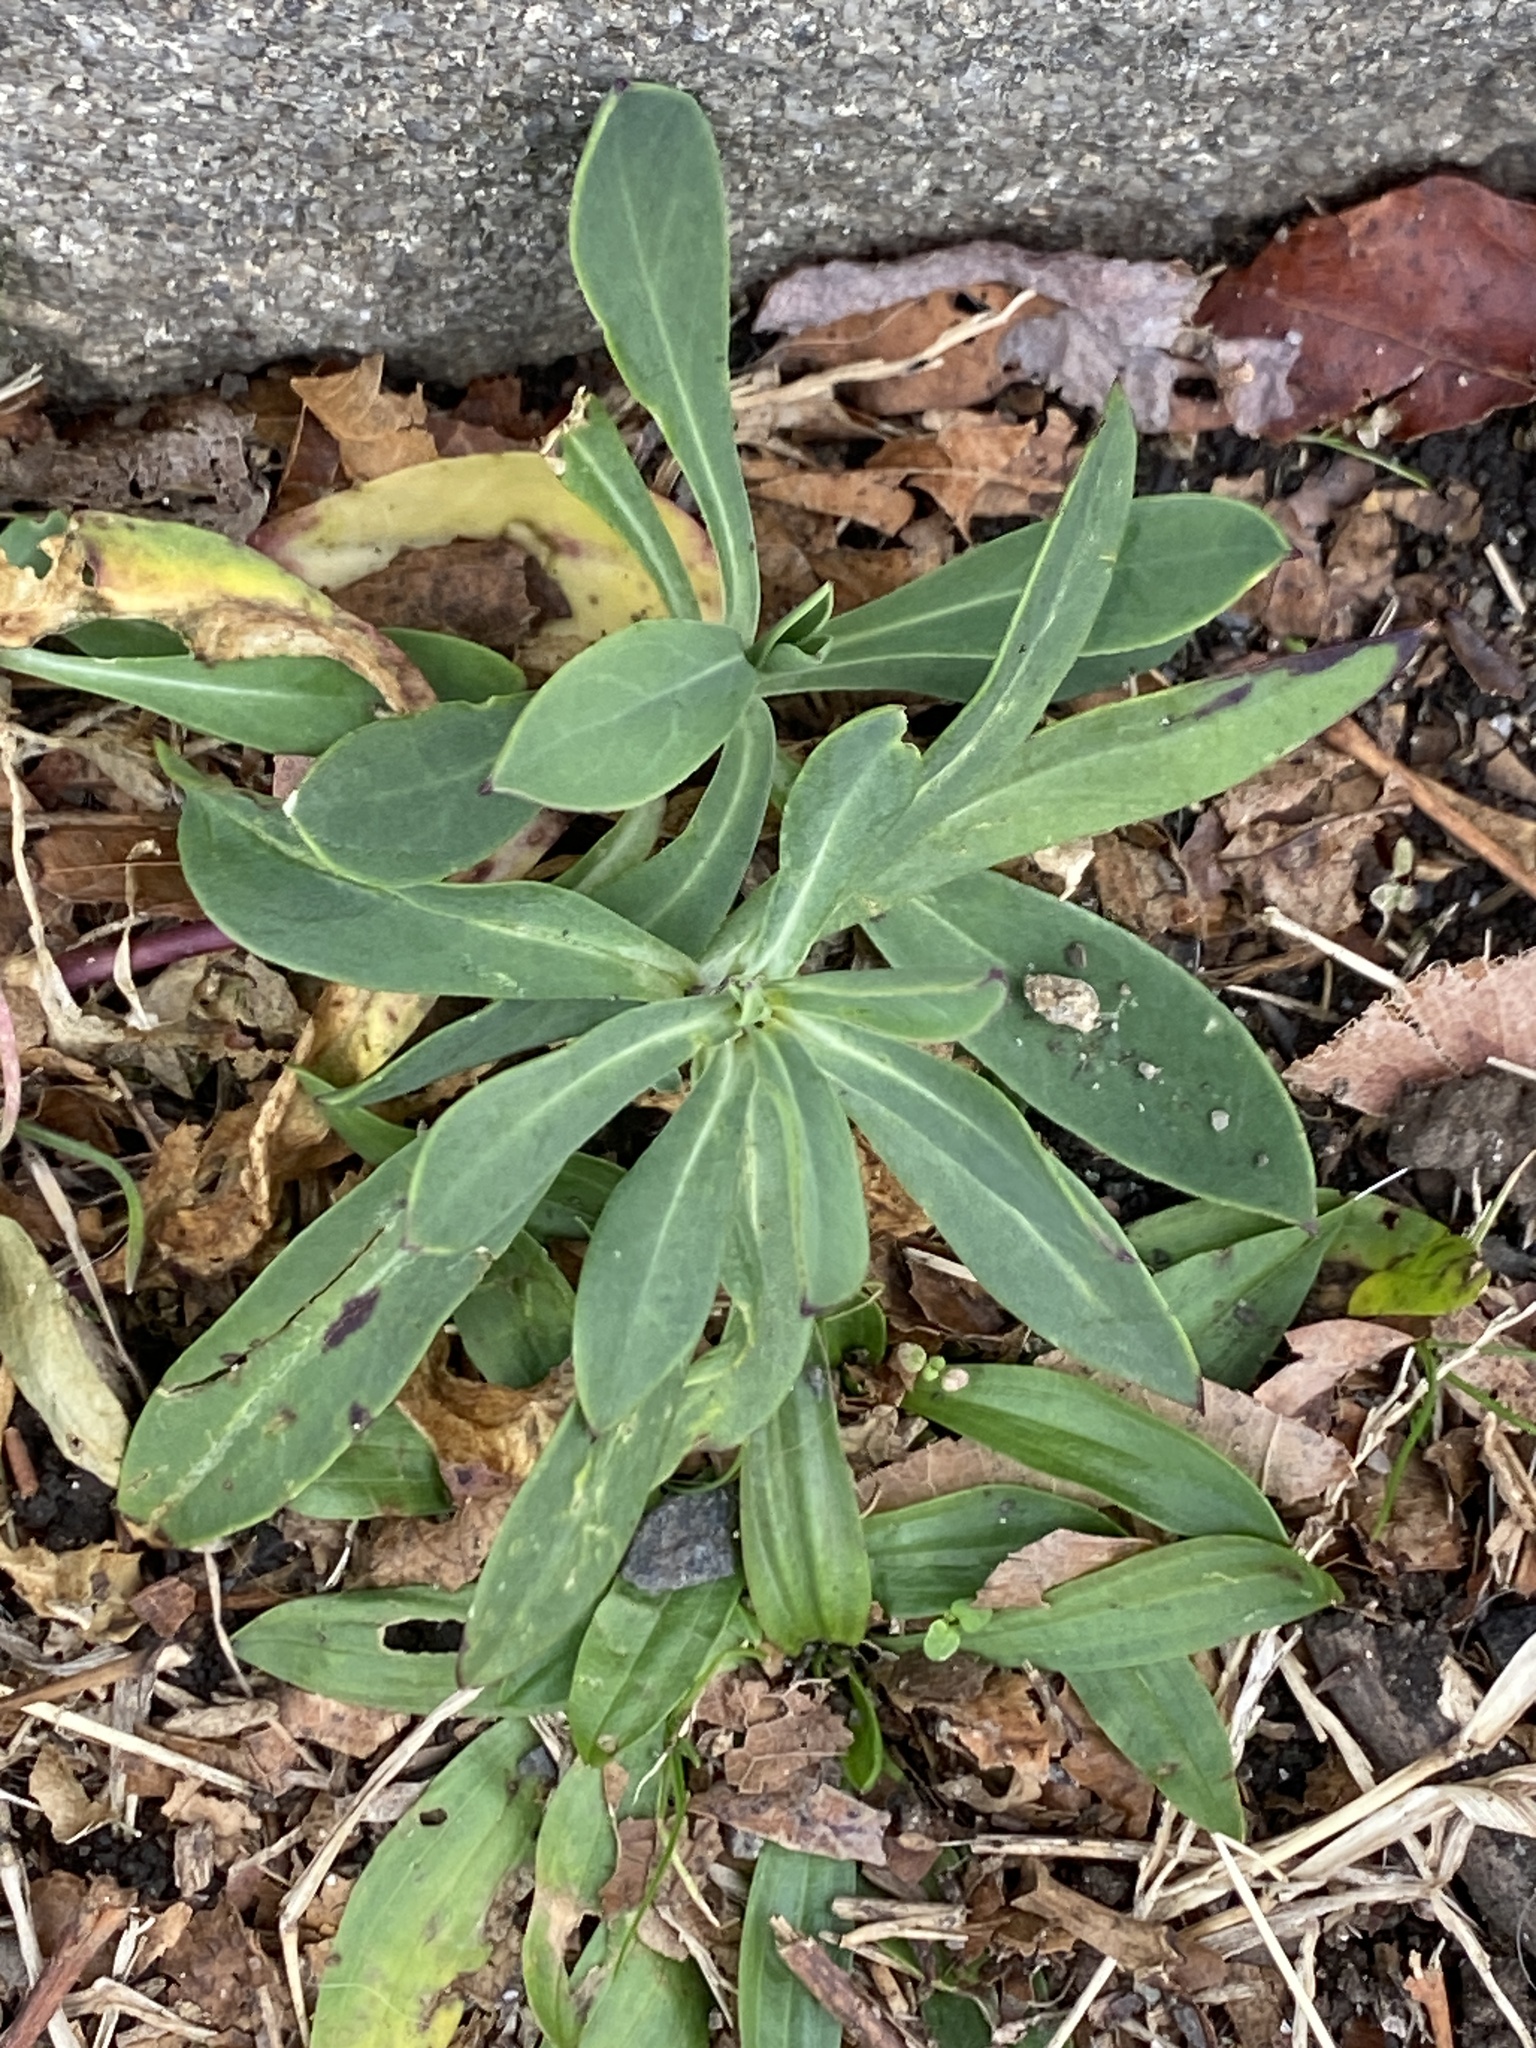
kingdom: Plantae
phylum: Tracheophyta
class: Magnoliopsida
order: Caryophyllales
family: Caryophyllaceae
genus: Silene
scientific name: Silene vulgaris
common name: Bladder campion
